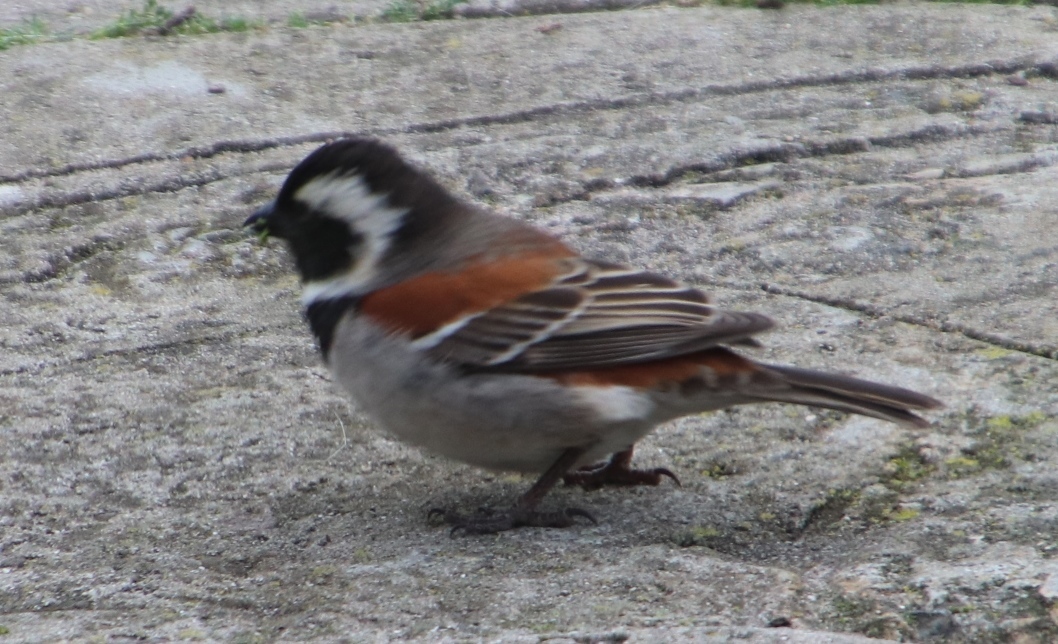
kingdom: Animalia
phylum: Chordata
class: Aves
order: Passeriformes
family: Passeridae
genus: Passer
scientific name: Passer melanurus
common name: Cape sparrow
